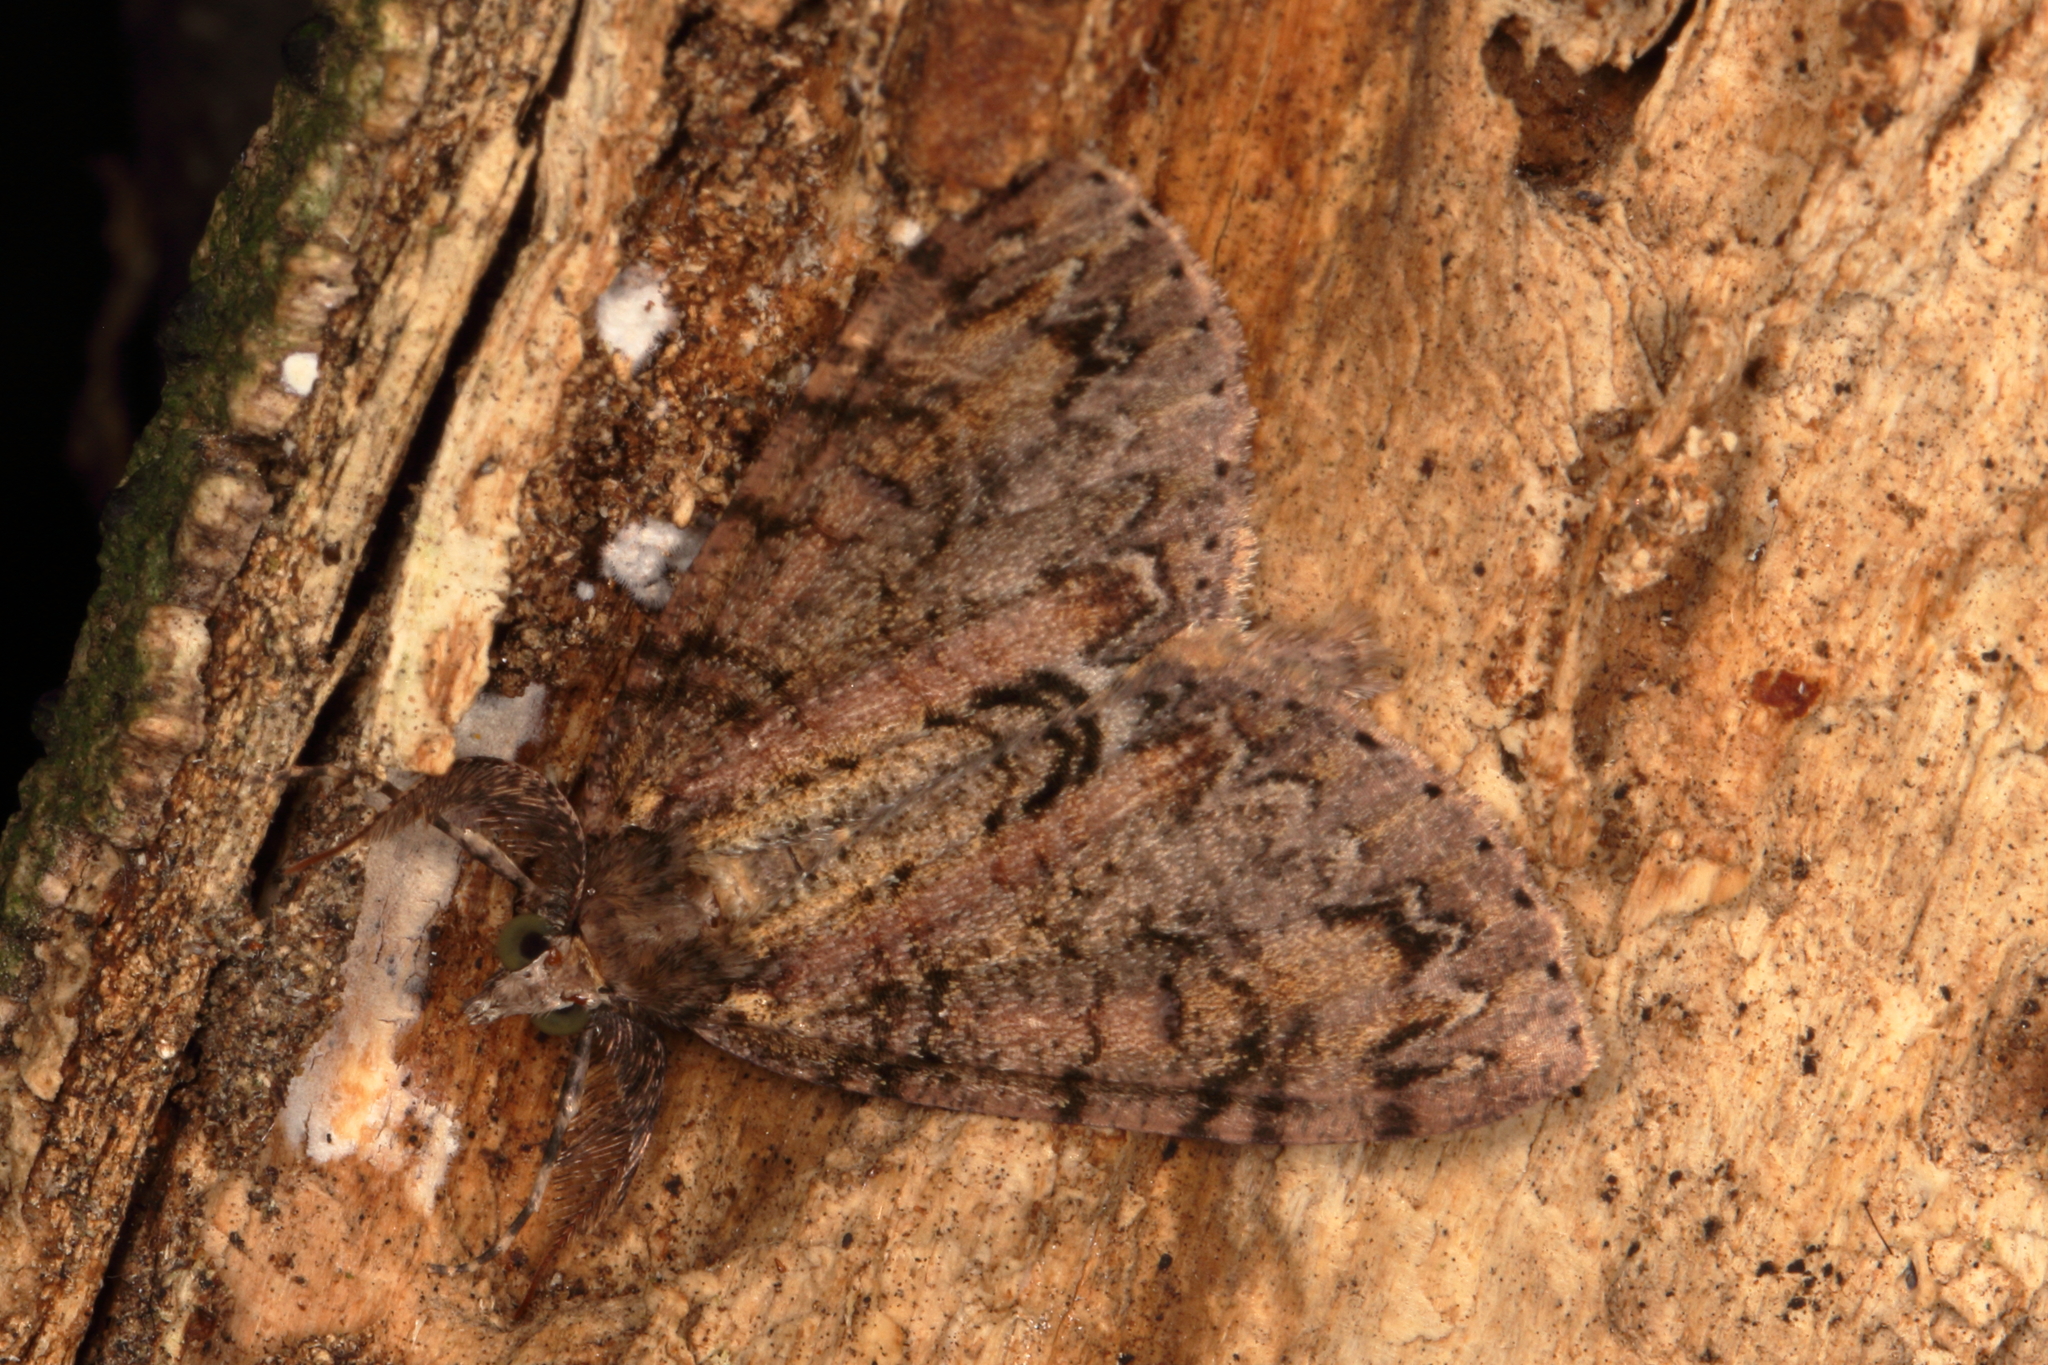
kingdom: Animalia
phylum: Arthropoda
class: Insecta
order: Lepidoptera
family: Geometridae
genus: Pseudocoremia
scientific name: Pseudocoremia suavis
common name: Common forest looper
